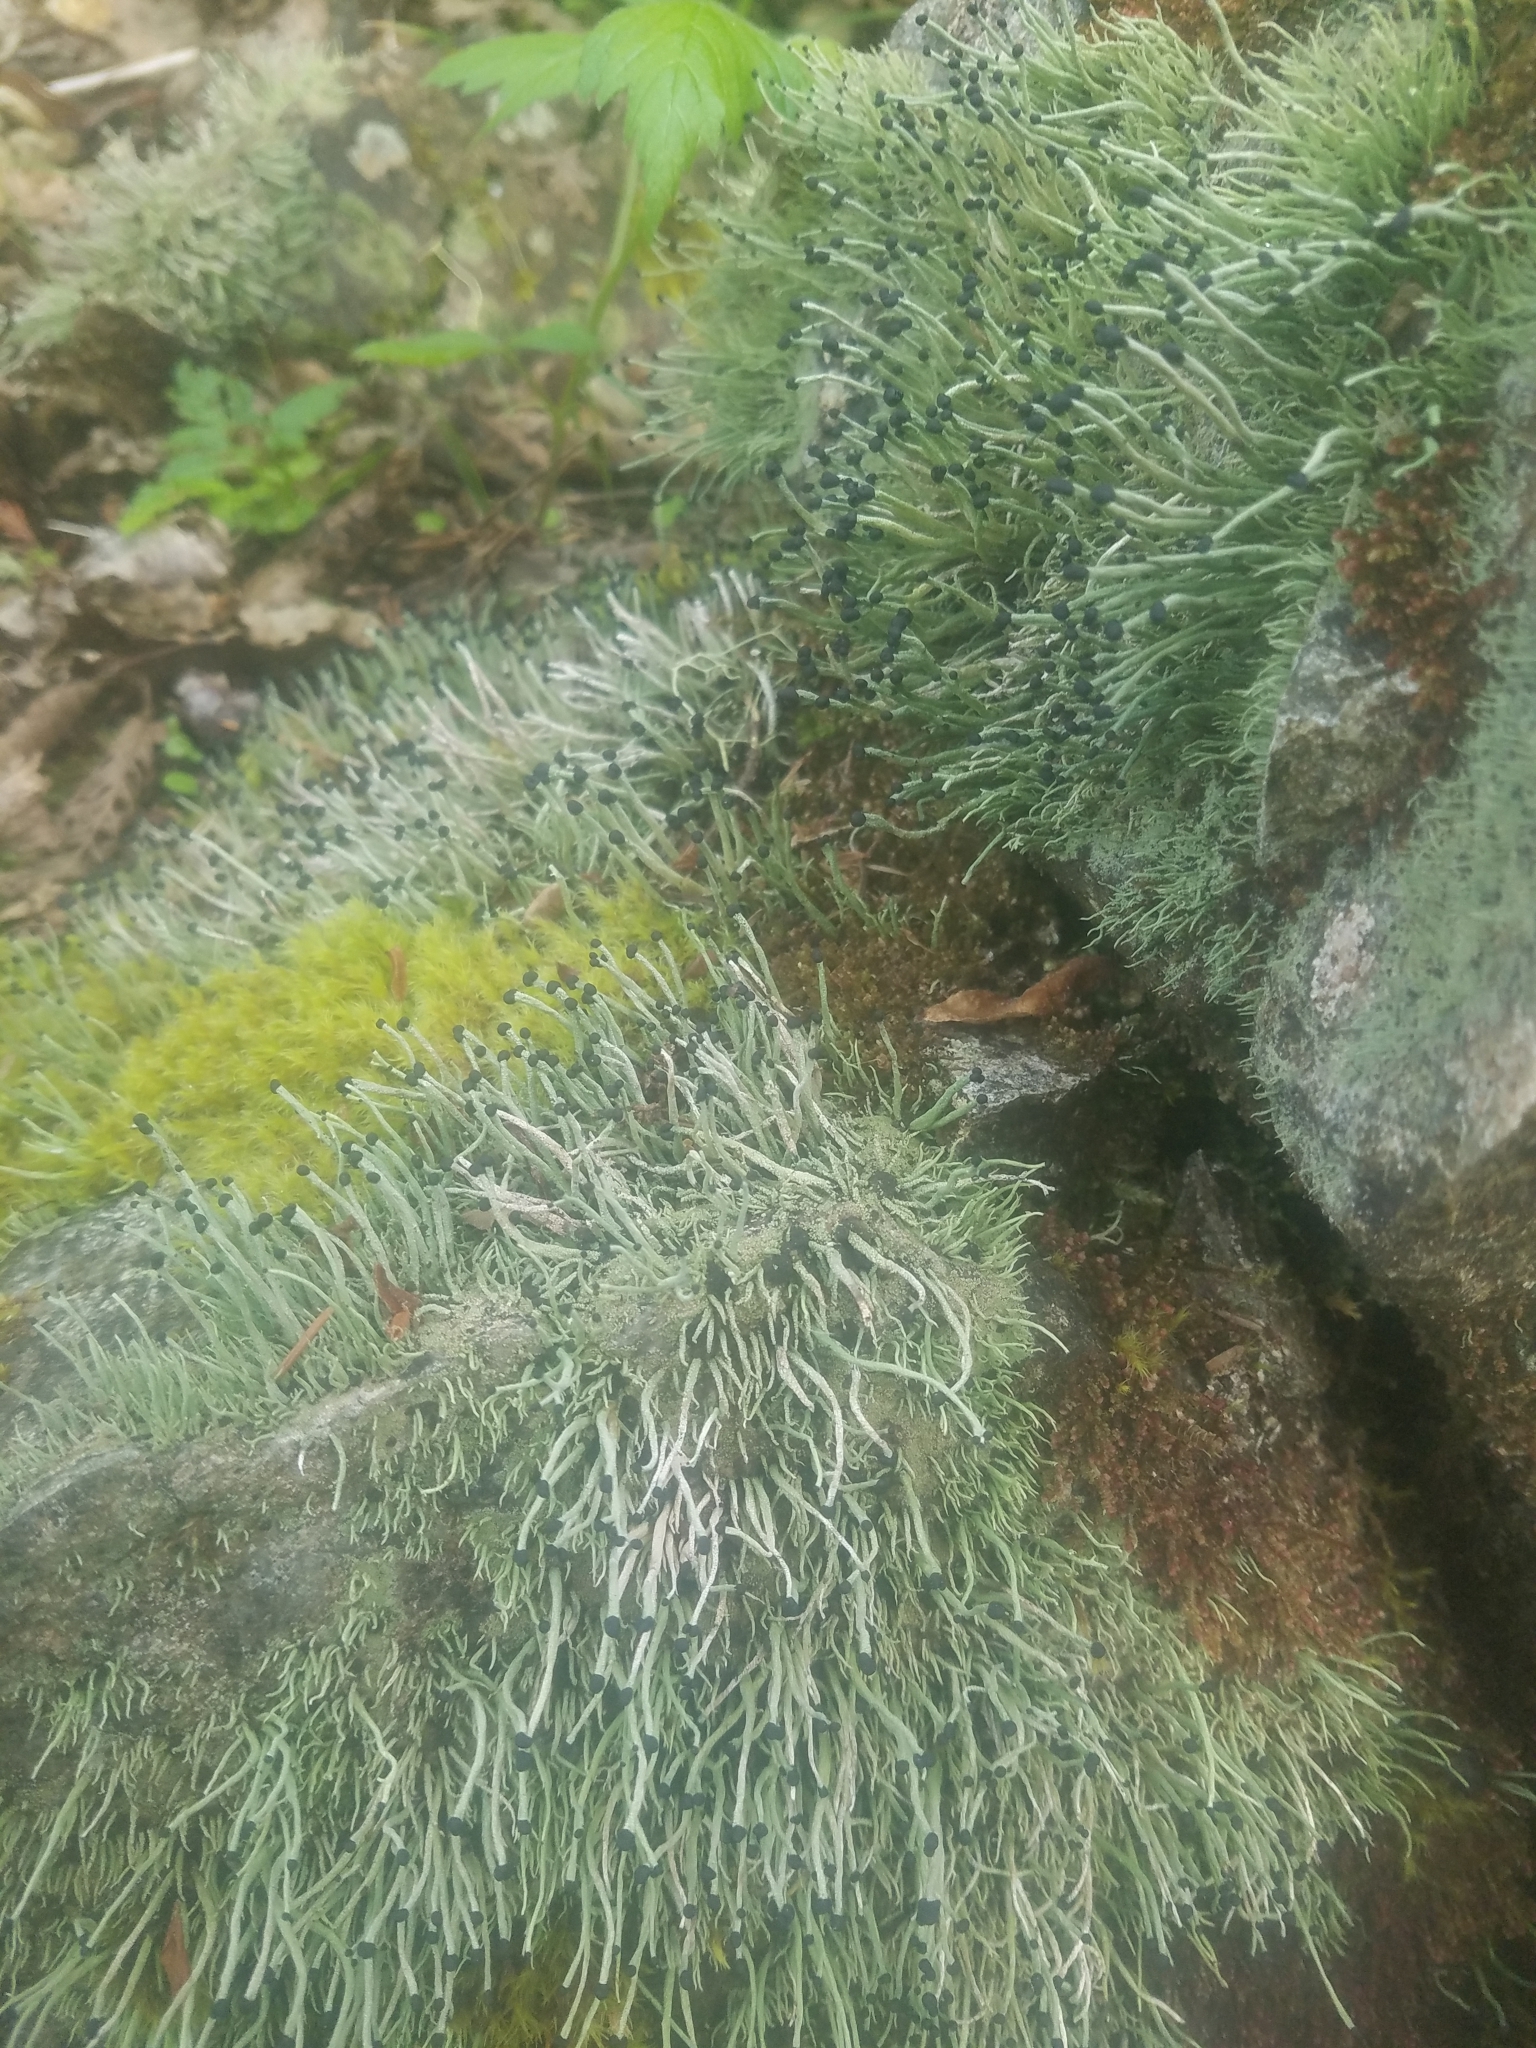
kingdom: Fungi
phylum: Ascomycota
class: Lecanoromycetes
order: Lecanorales
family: Cladoniaceae
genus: Pilophorus
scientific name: Pilophorus acicularis
